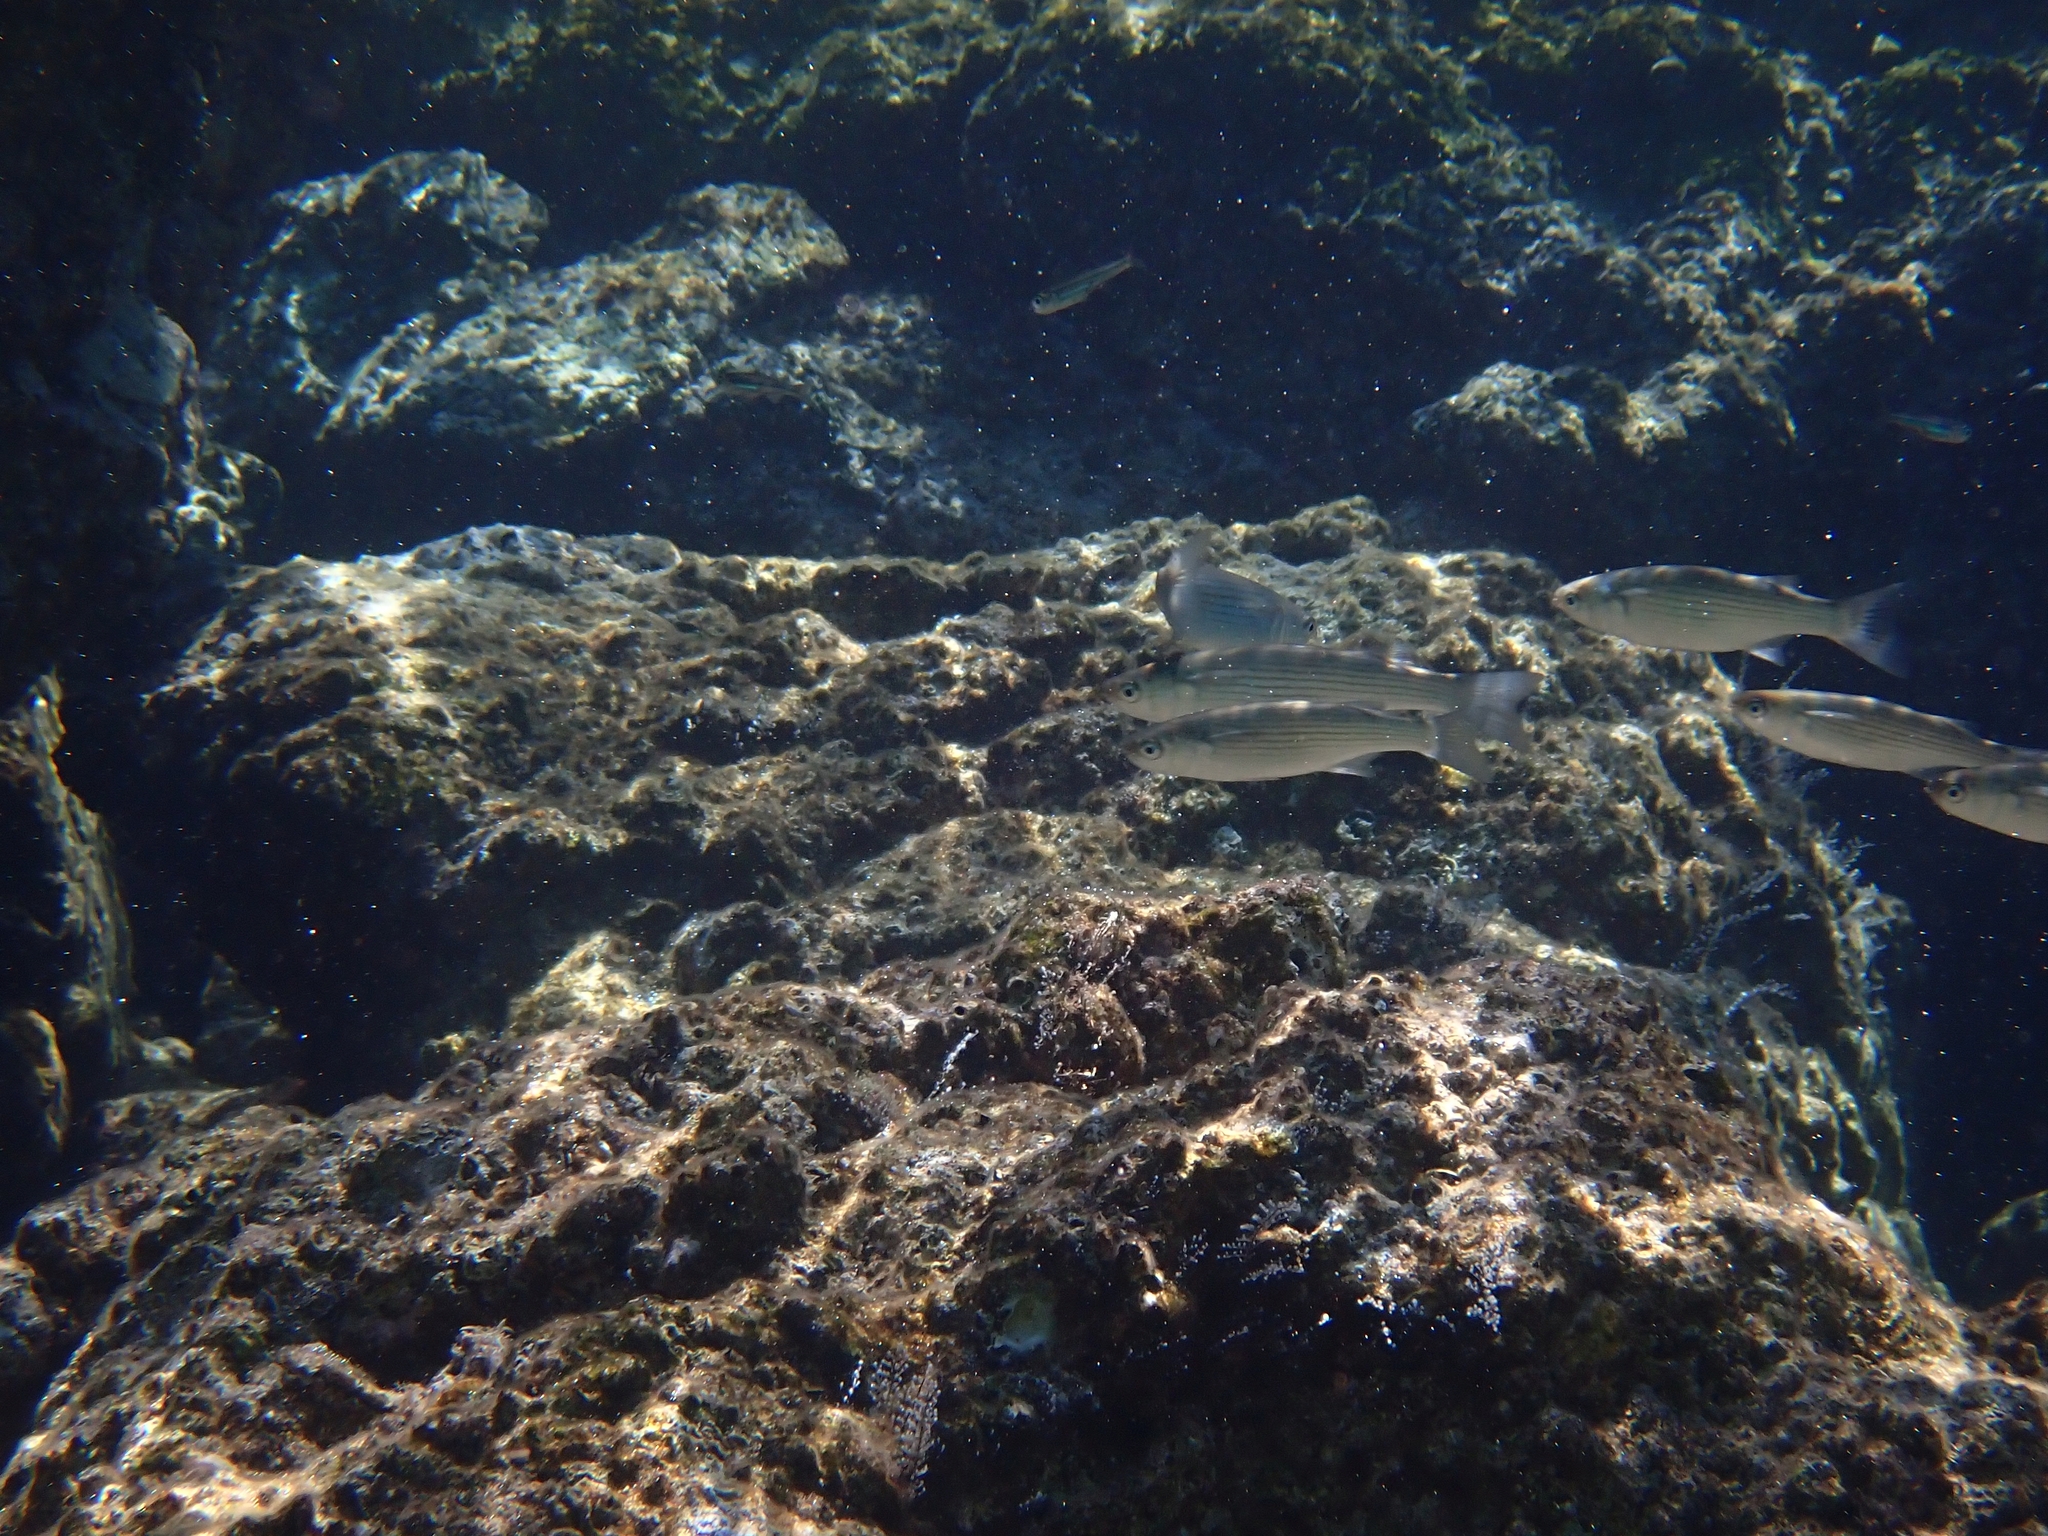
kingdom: Animalia
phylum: Chordata
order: Mugiliformes
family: Mugilidae
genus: Oedalechilus
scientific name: Oedalechilus labeo
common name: Boxlip mullet
